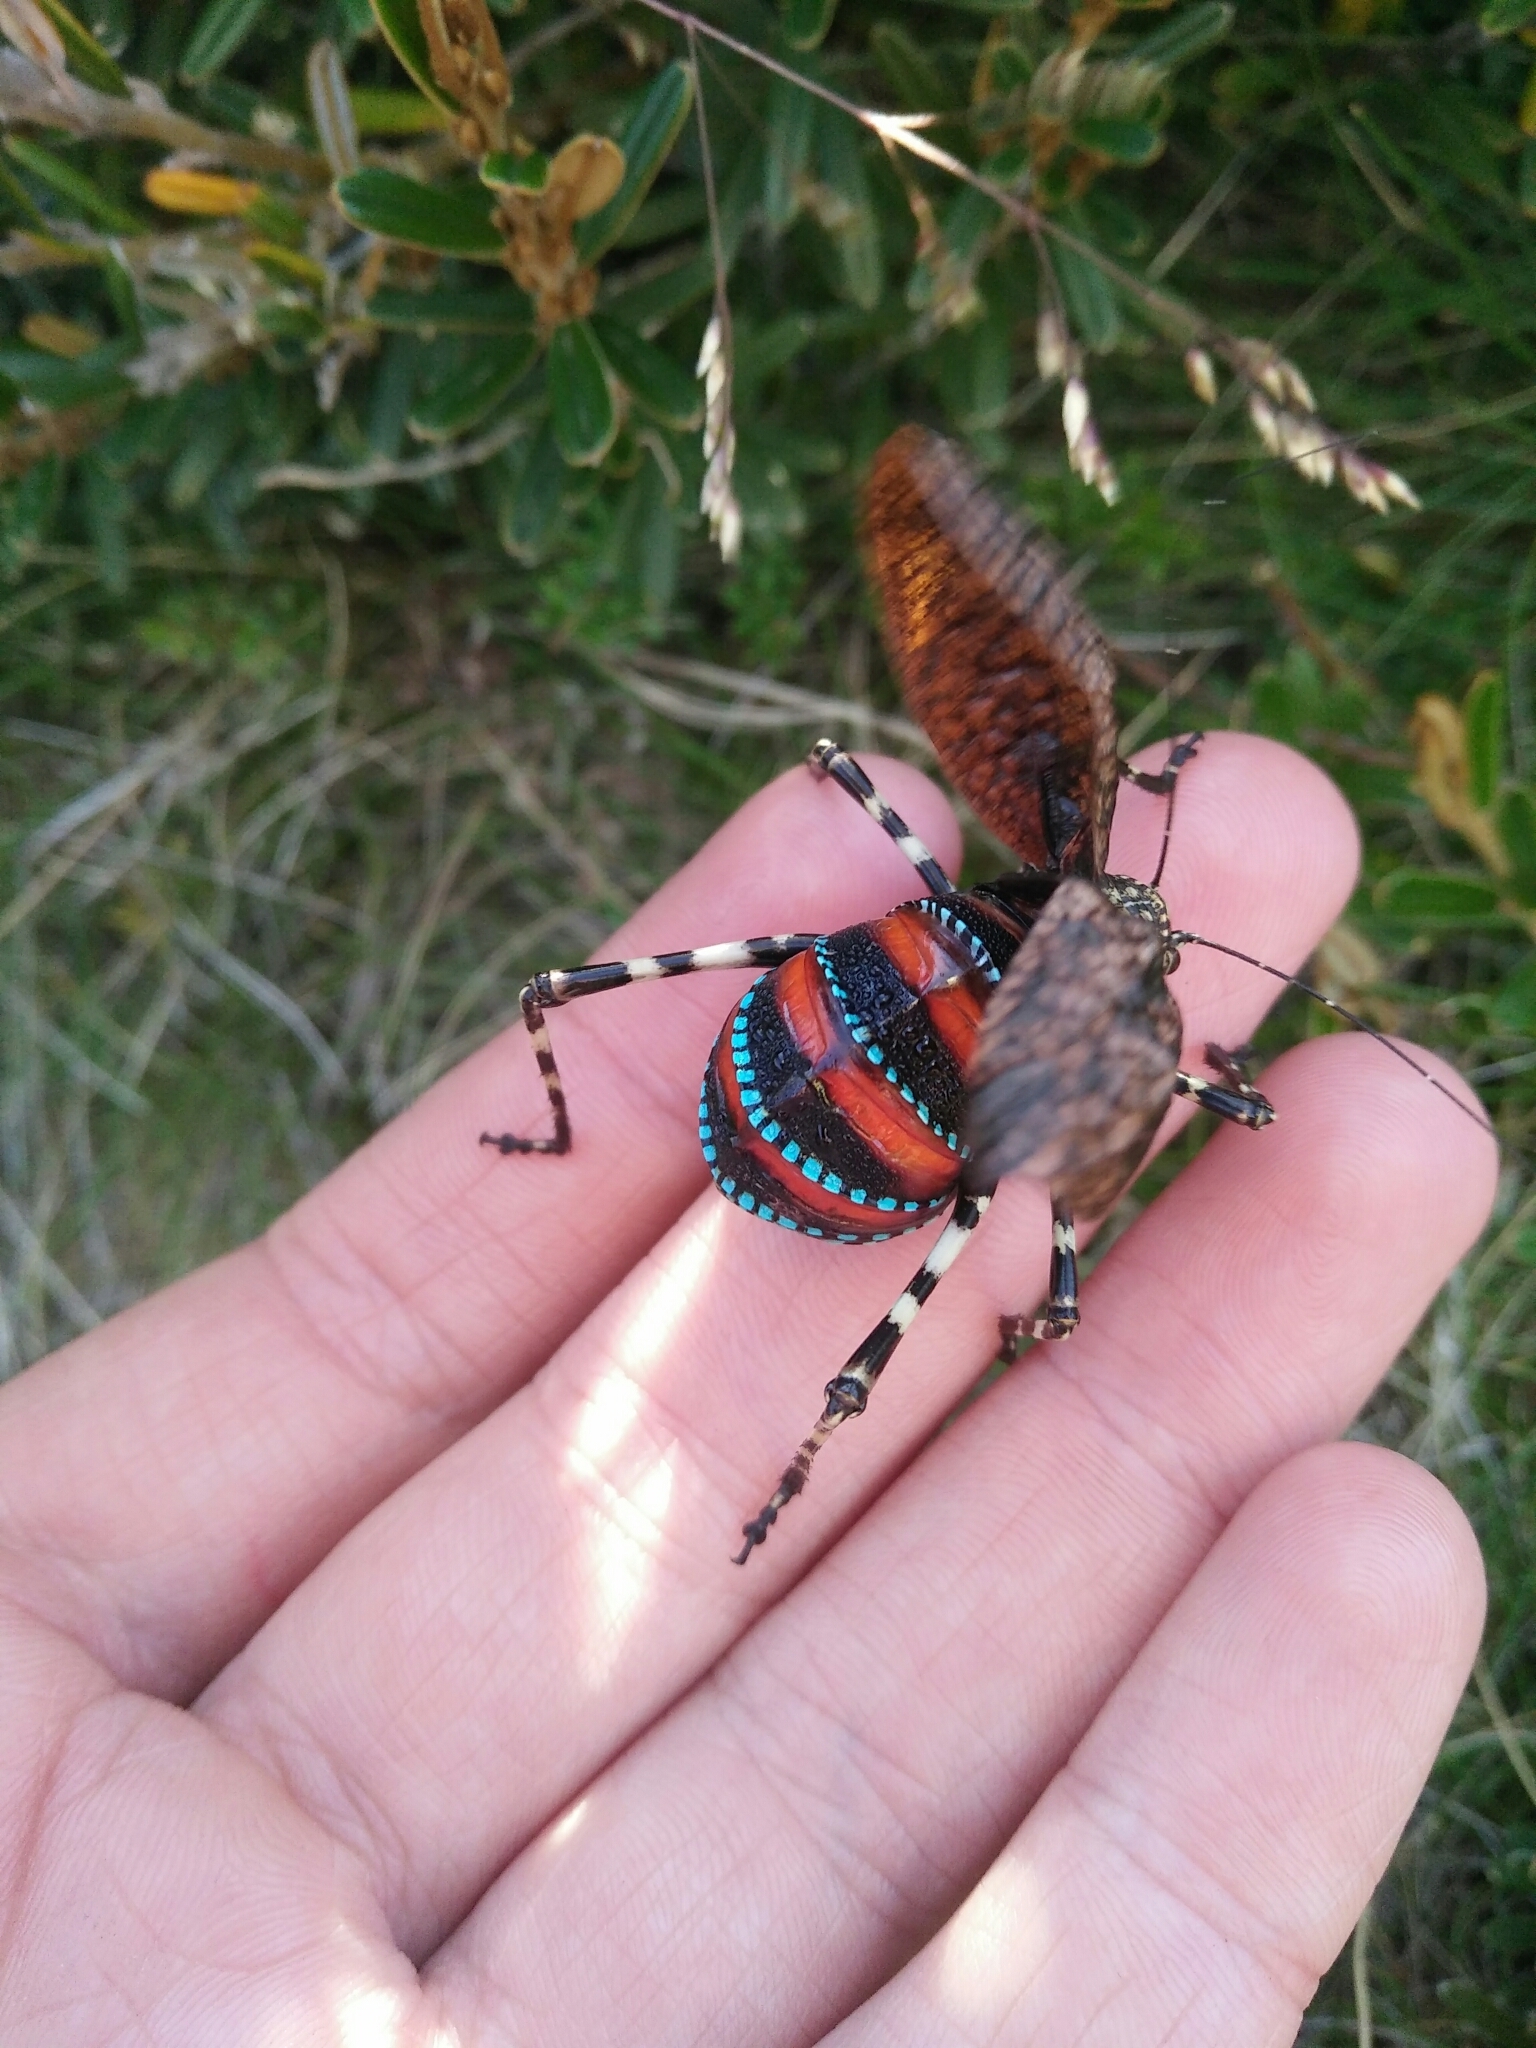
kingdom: Animalia
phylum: Arthropoda
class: Insecta
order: Orthoptera
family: Tettigoniidae
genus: Acripeza
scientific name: Acripeza reticulata
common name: Mountain katydid
